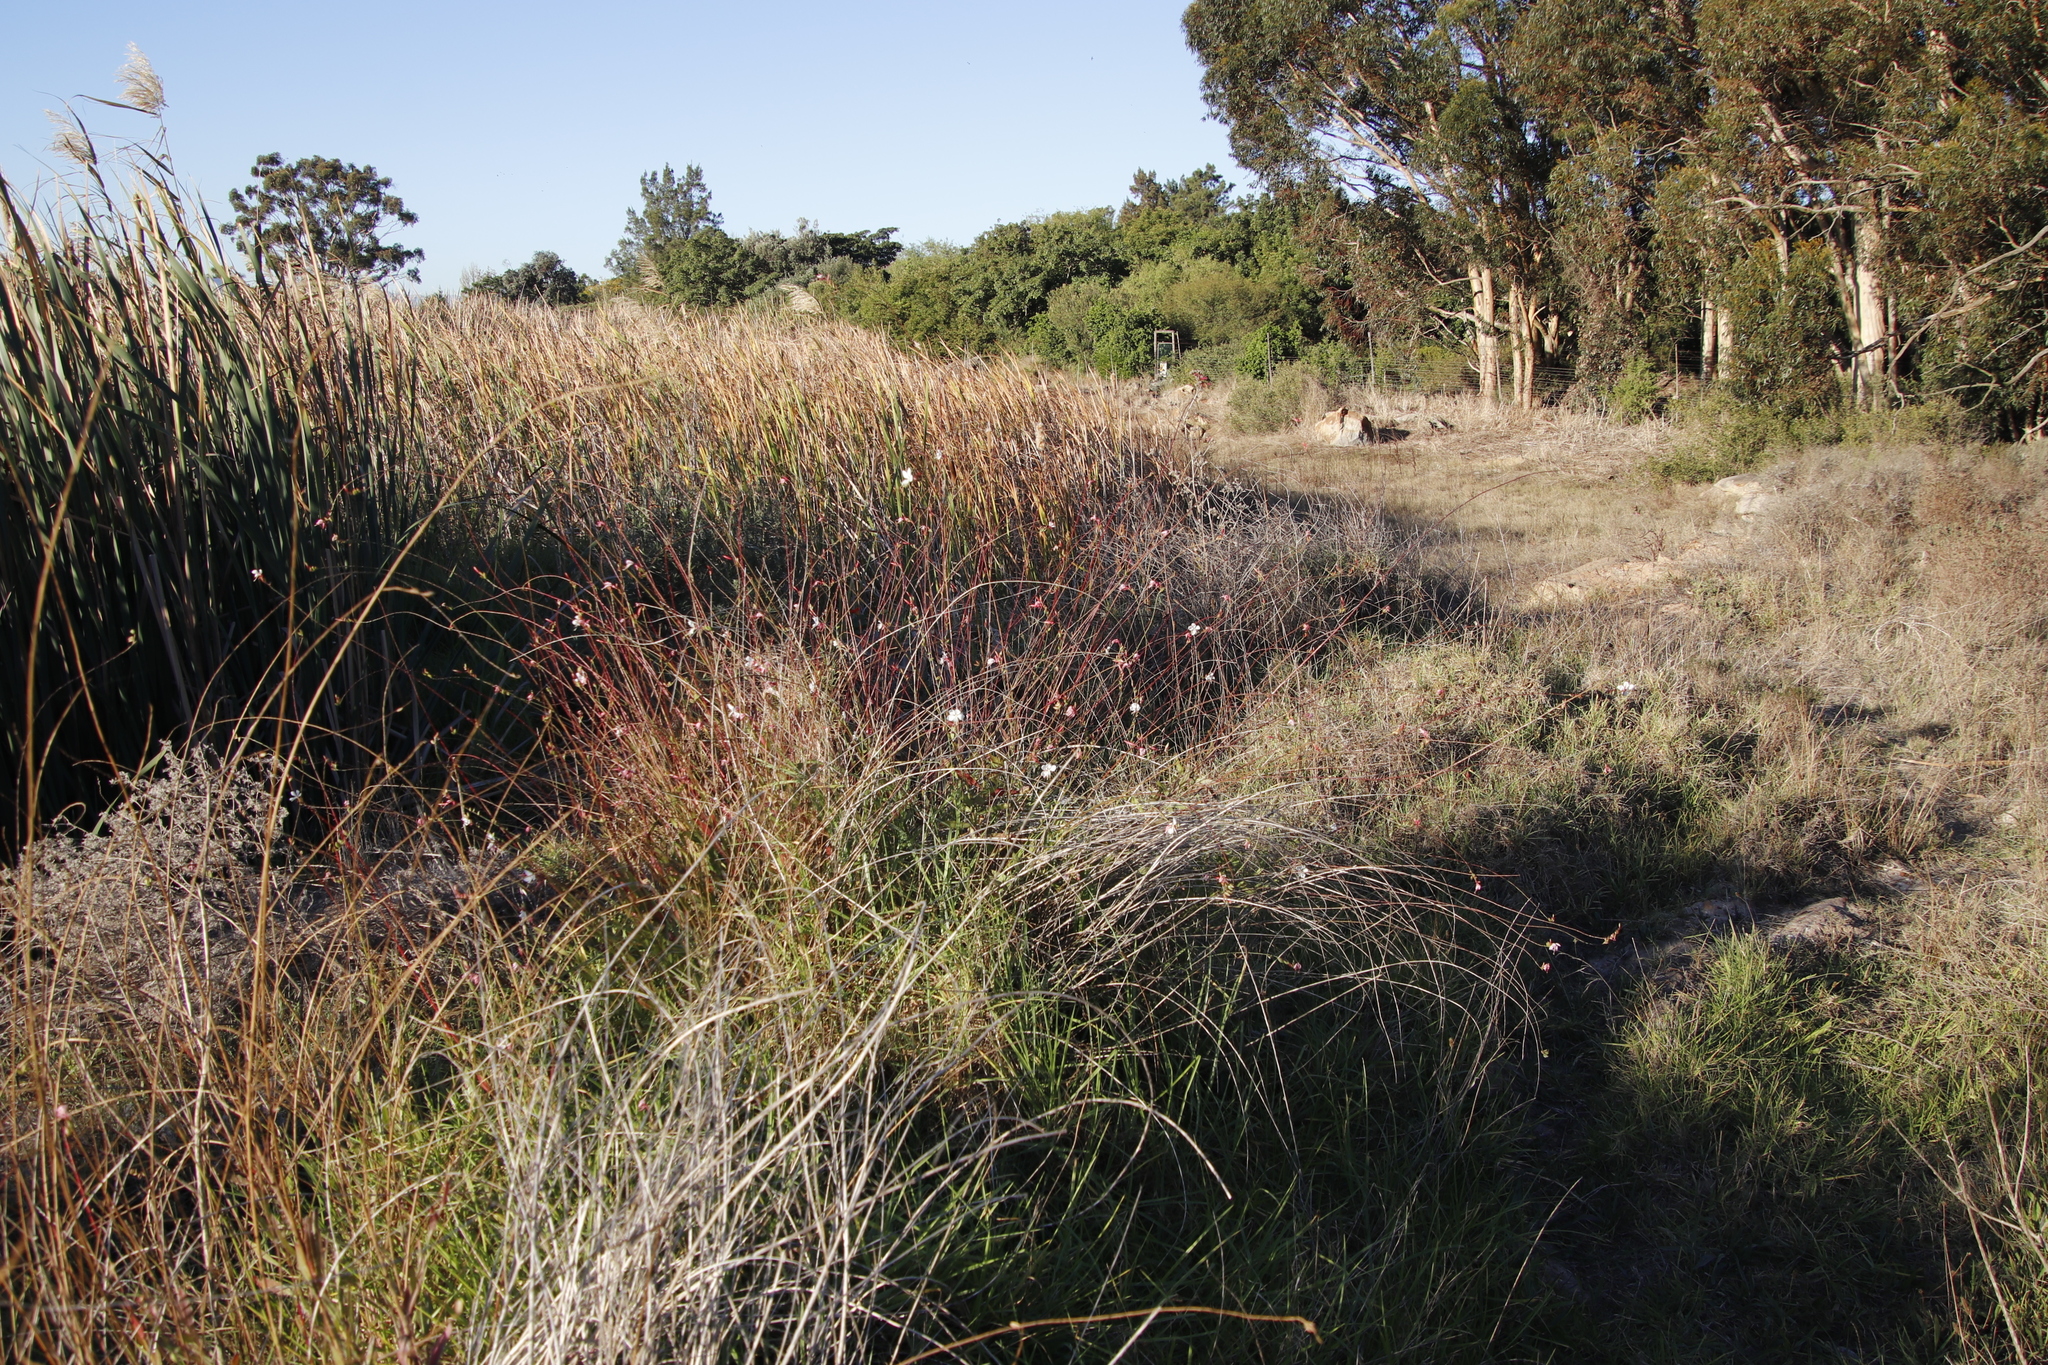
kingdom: Plantae
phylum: Tracheophyta
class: Magnoliopsida
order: Myrtales
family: Onagraceae
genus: Oenothera
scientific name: Oenothera gaura
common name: Biennial beeblossom
